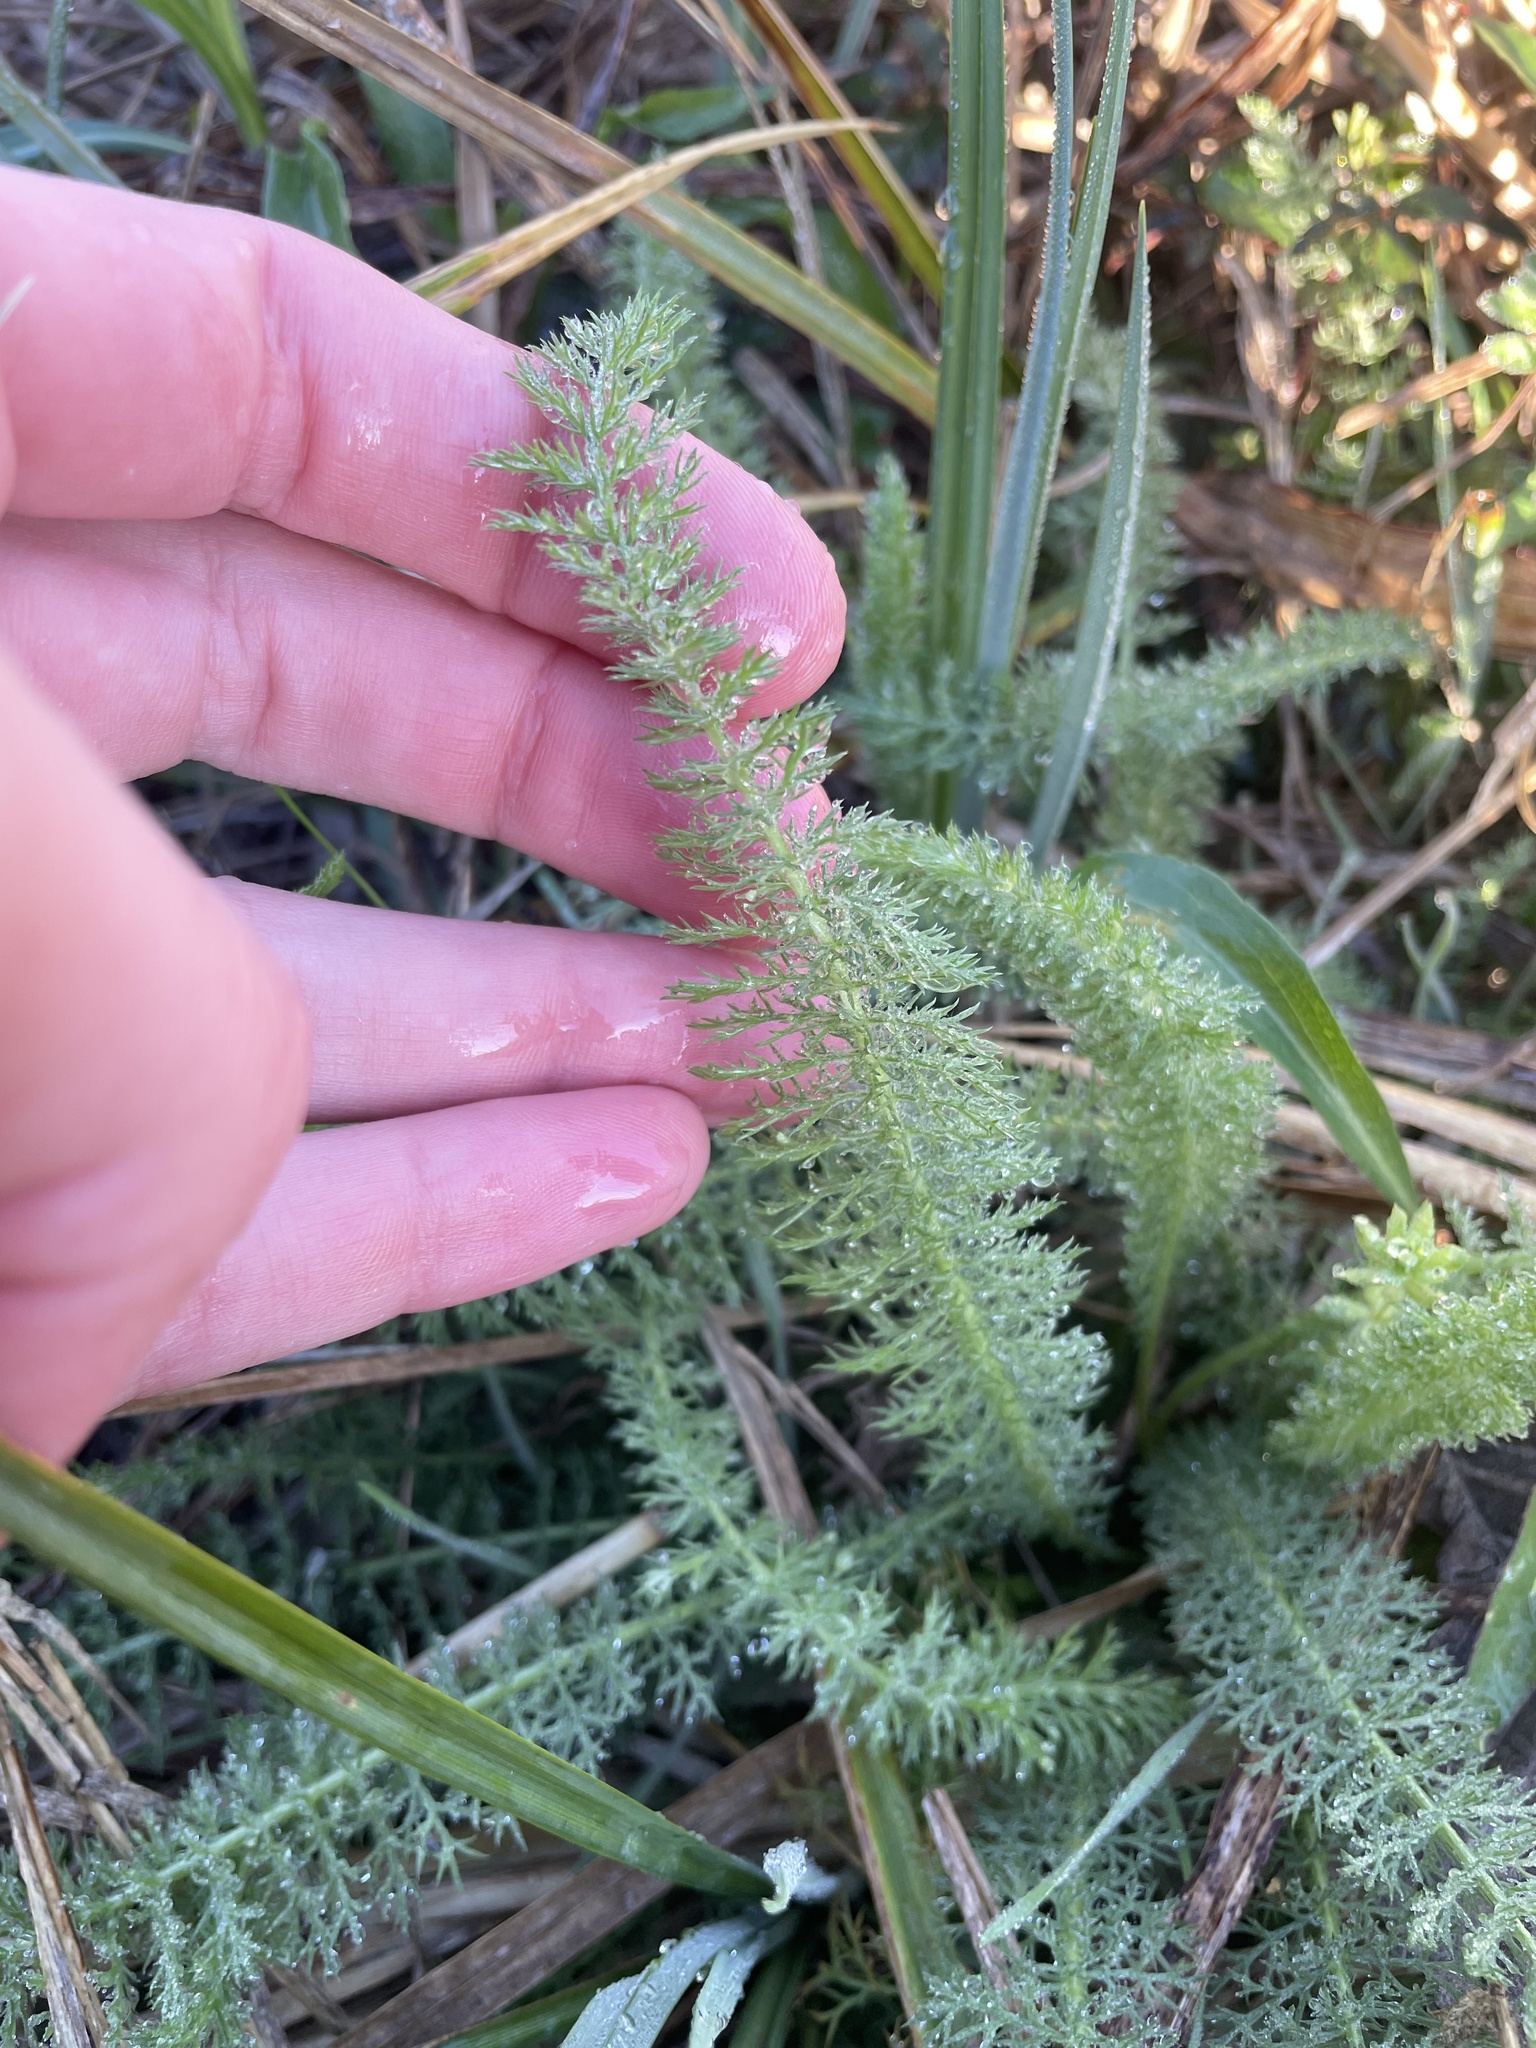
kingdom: Plantae
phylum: Tracheophyta
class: Magnoliopsida
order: Asterales
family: Asteraceae
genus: Achillea
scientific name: Achillea millefolium
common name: Yarrow
